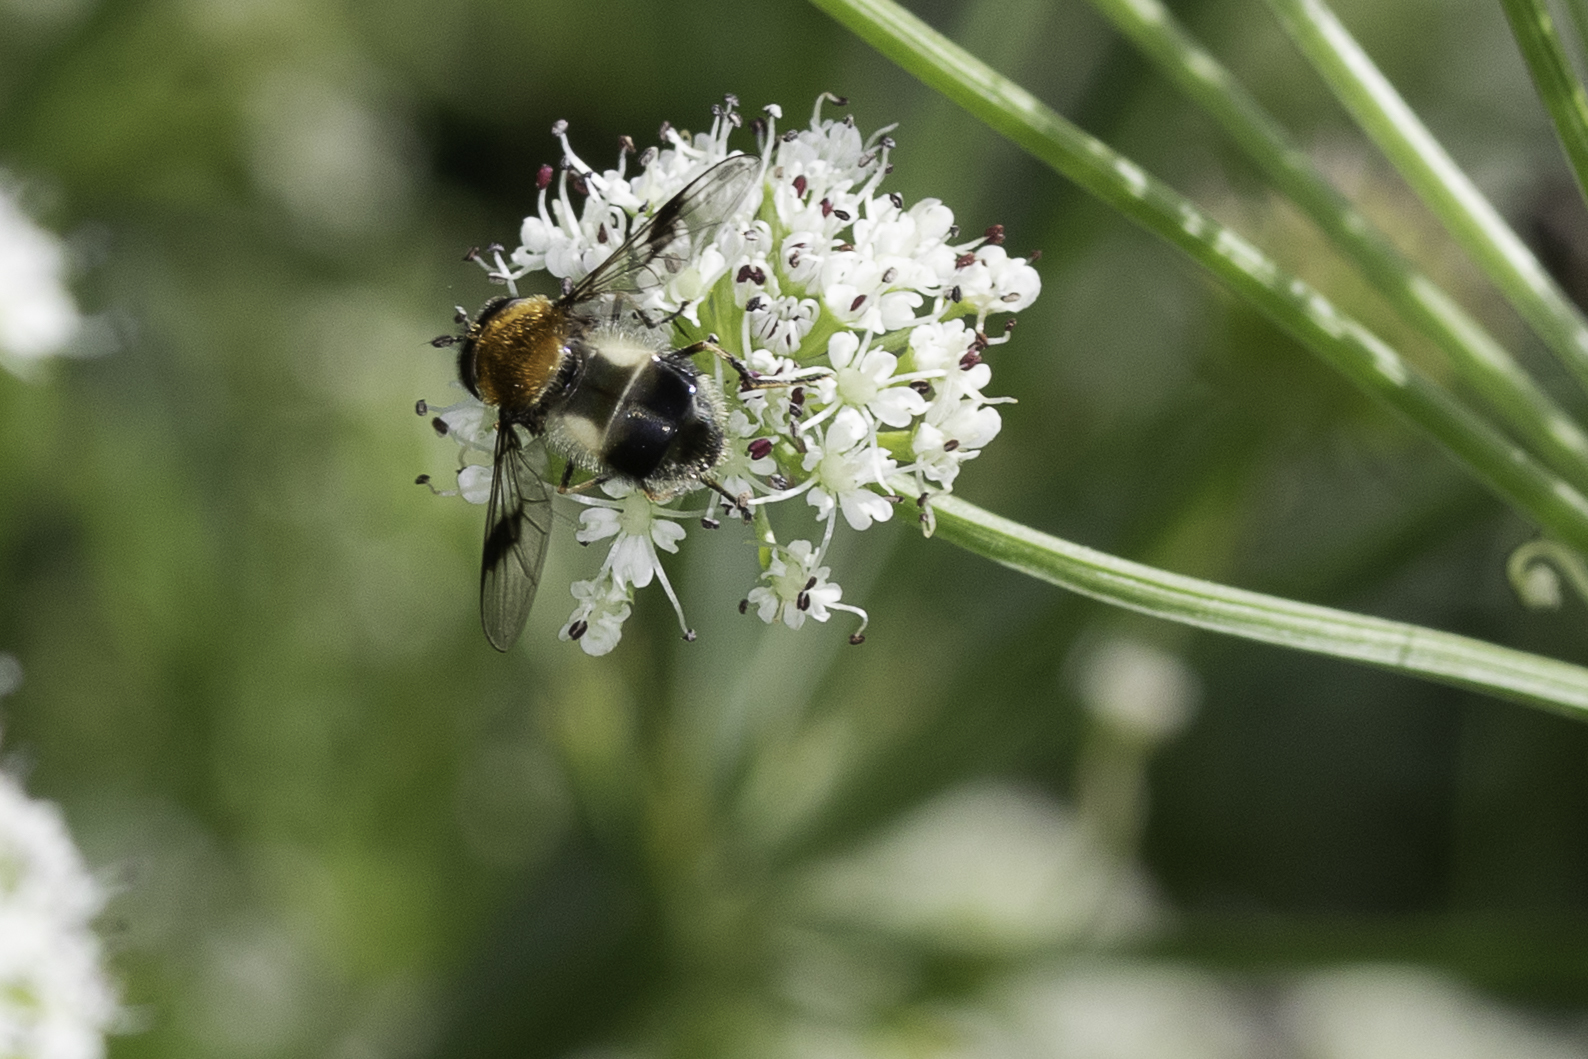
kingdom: Animalia
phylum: Arthropoda
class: Insecta
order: Diptera
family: Syrphidae
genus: Leucozona
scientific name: Leucozona lucorum
